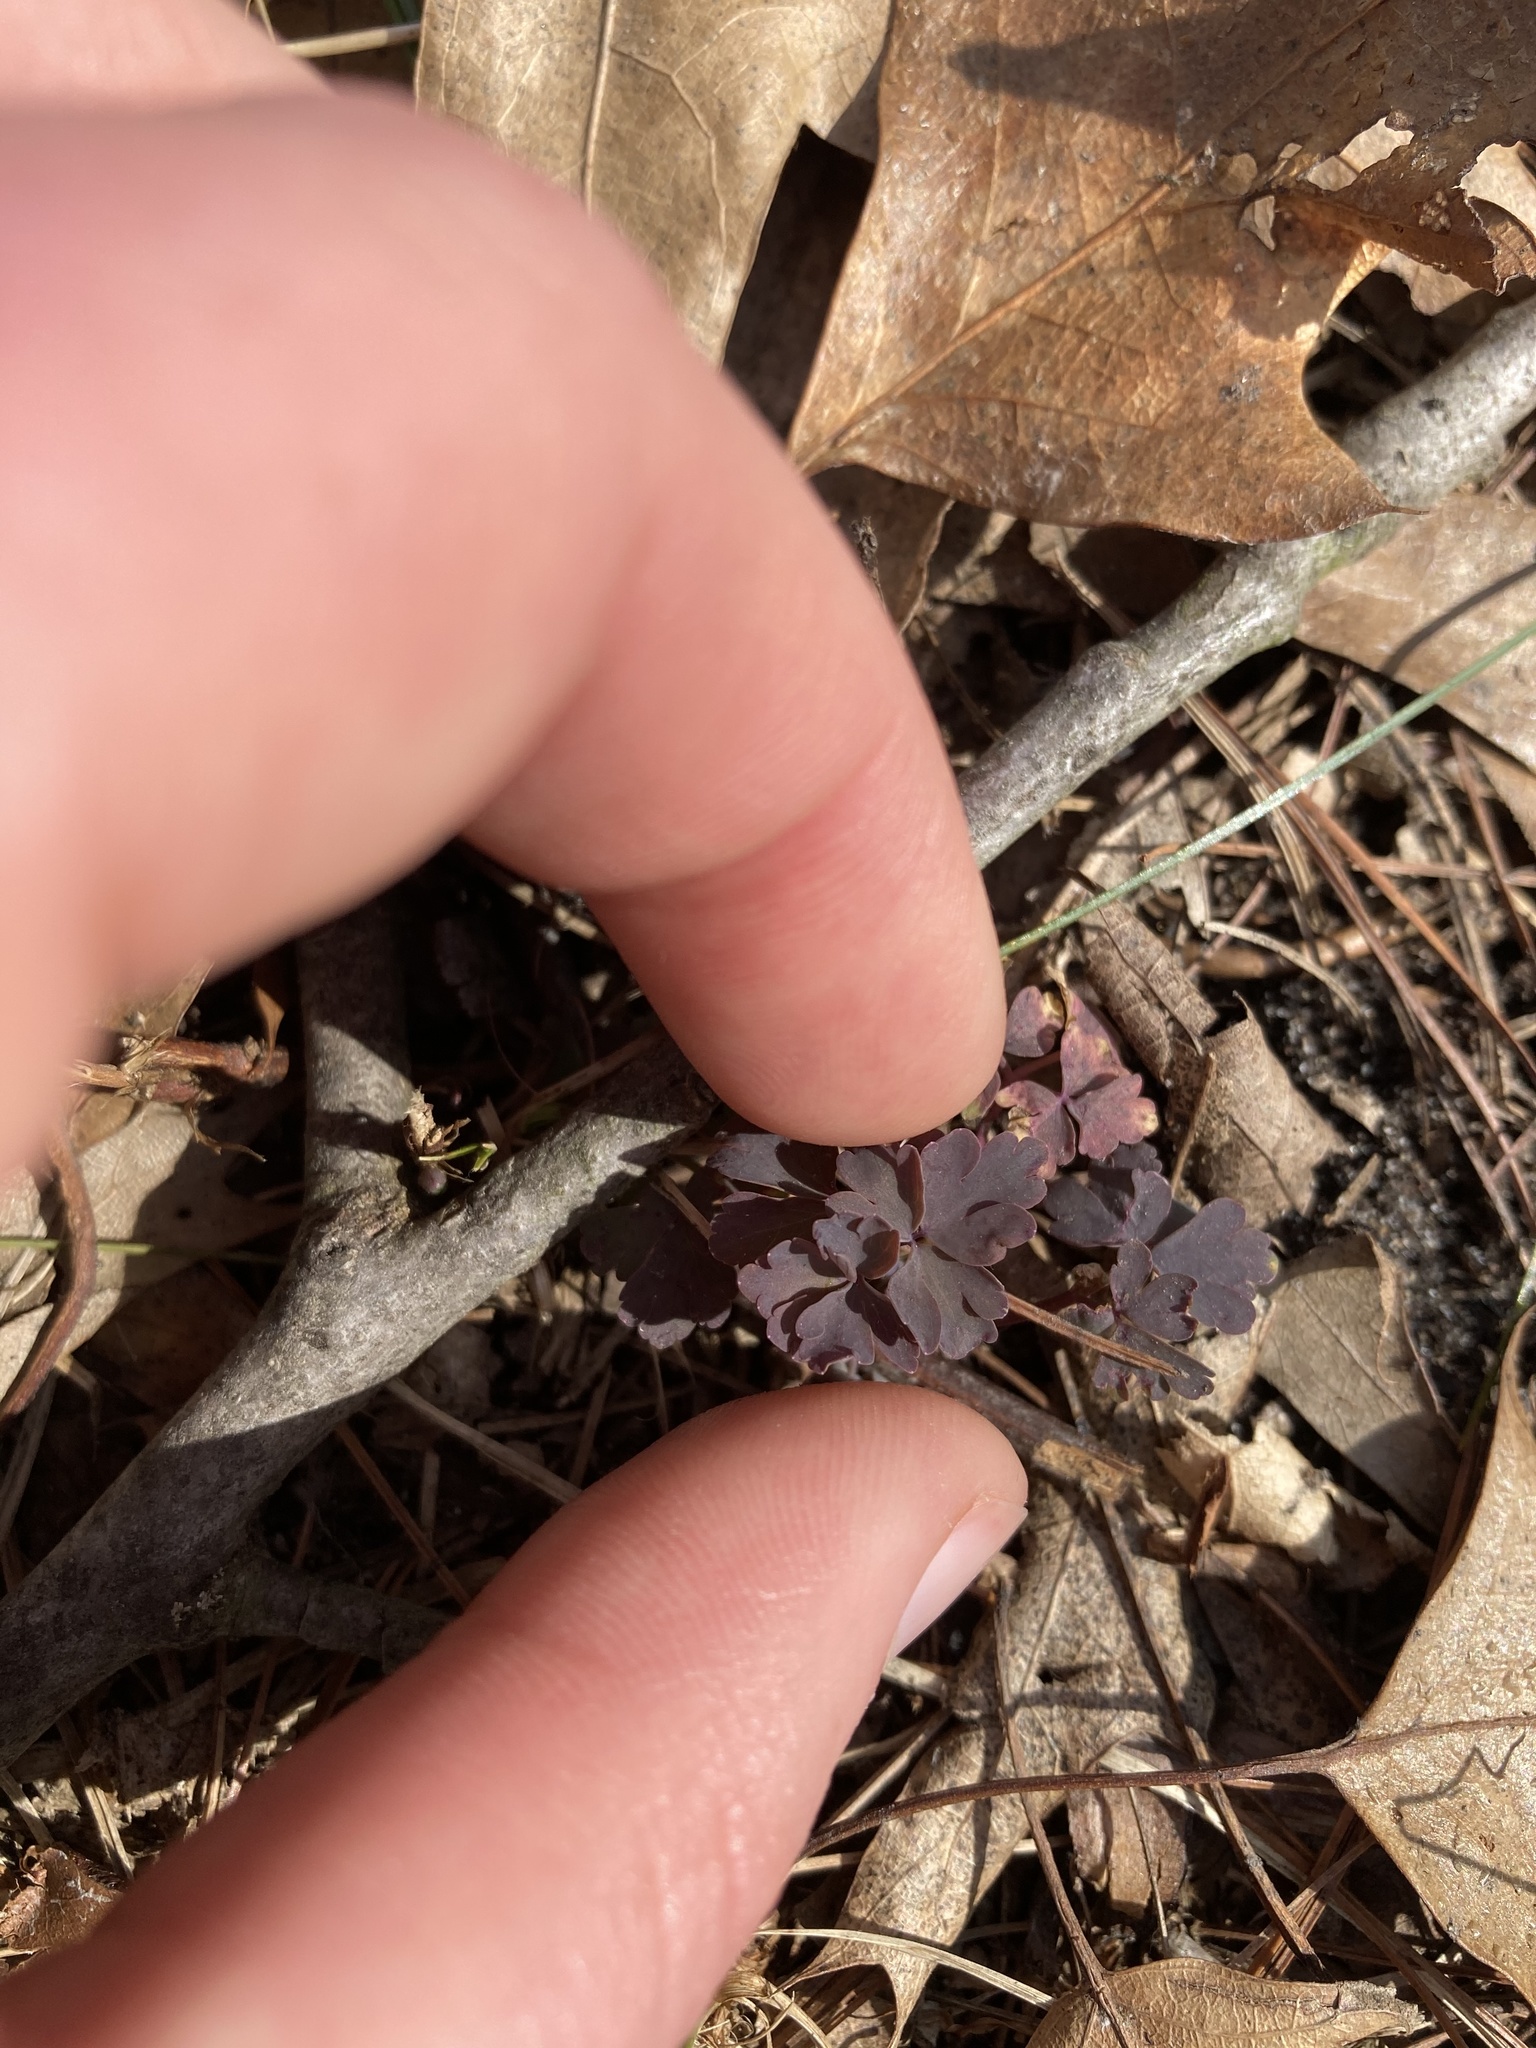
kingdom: Plantae
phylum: Tracheophyta
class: Magnoliopsida
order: Ranunculales
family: Ranunculaceae
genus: Thalictrum
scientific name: Thalictrum dioicum
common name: Early meadow-rue
